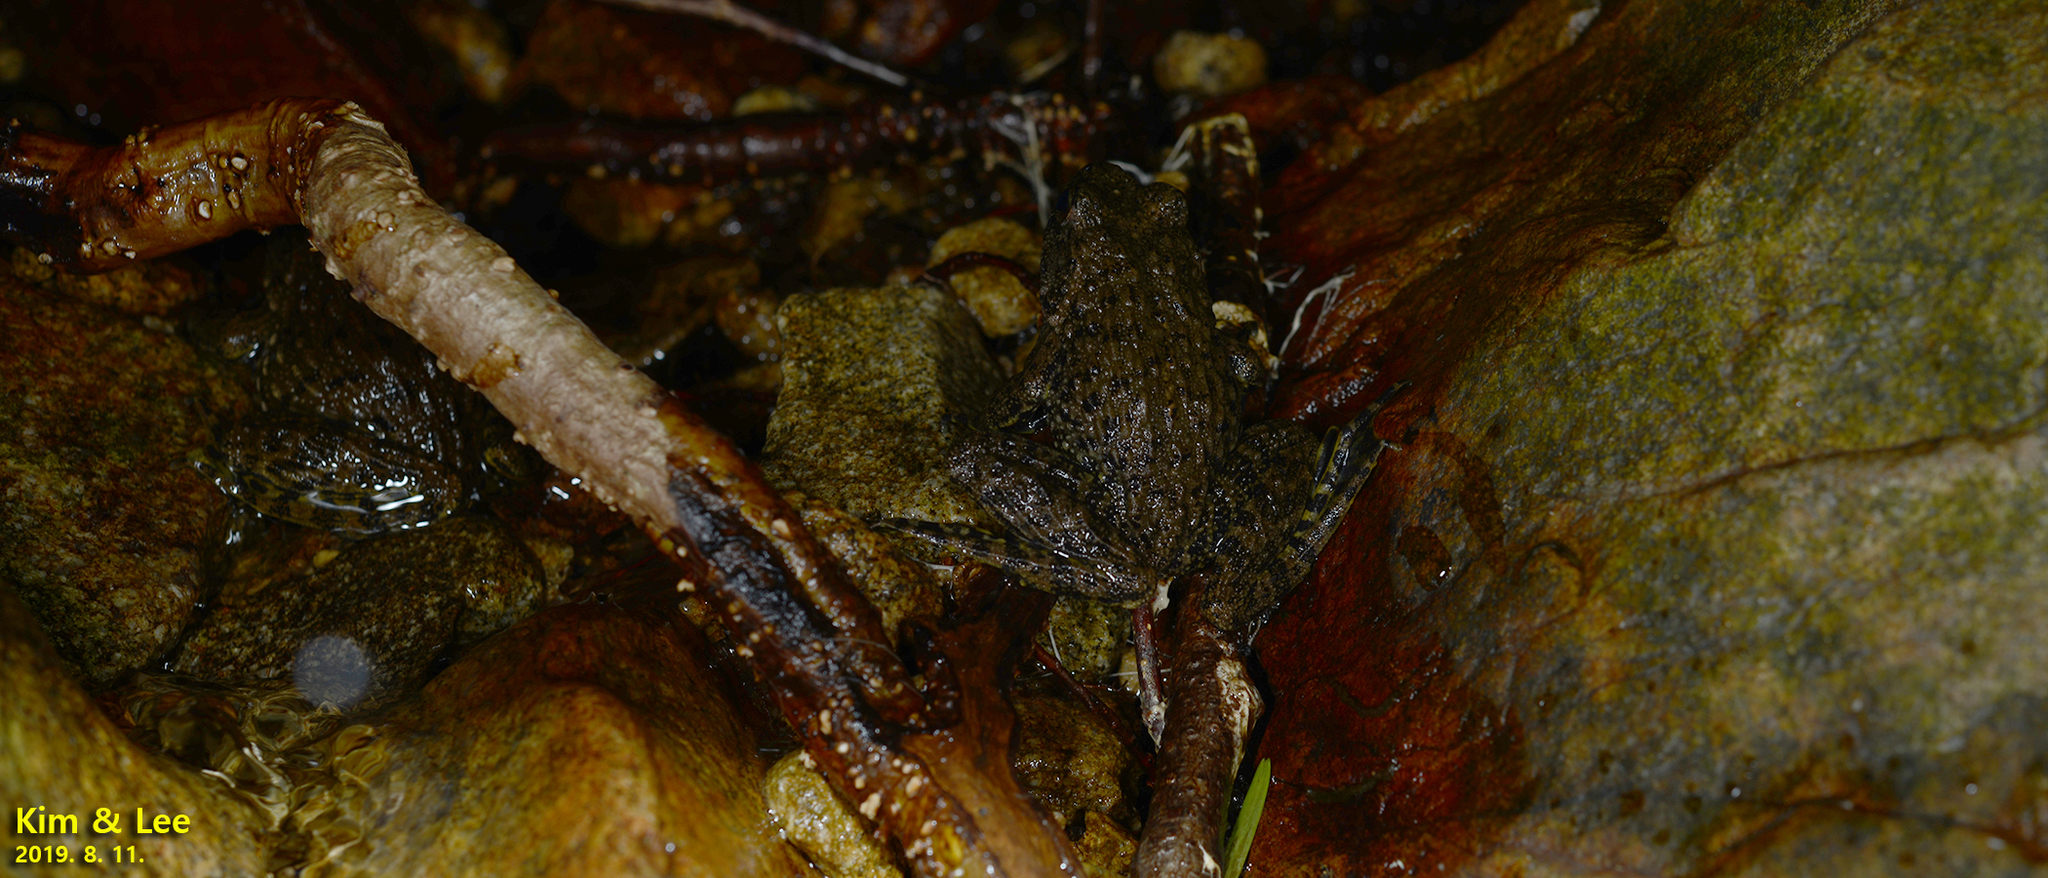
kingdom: Animalia
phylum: Chordata
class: Amphibia
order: Anura
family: Ranidae
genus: Glandirana
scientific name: Glandirana emeljanovi
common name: Northeast china rough-skinned frog
